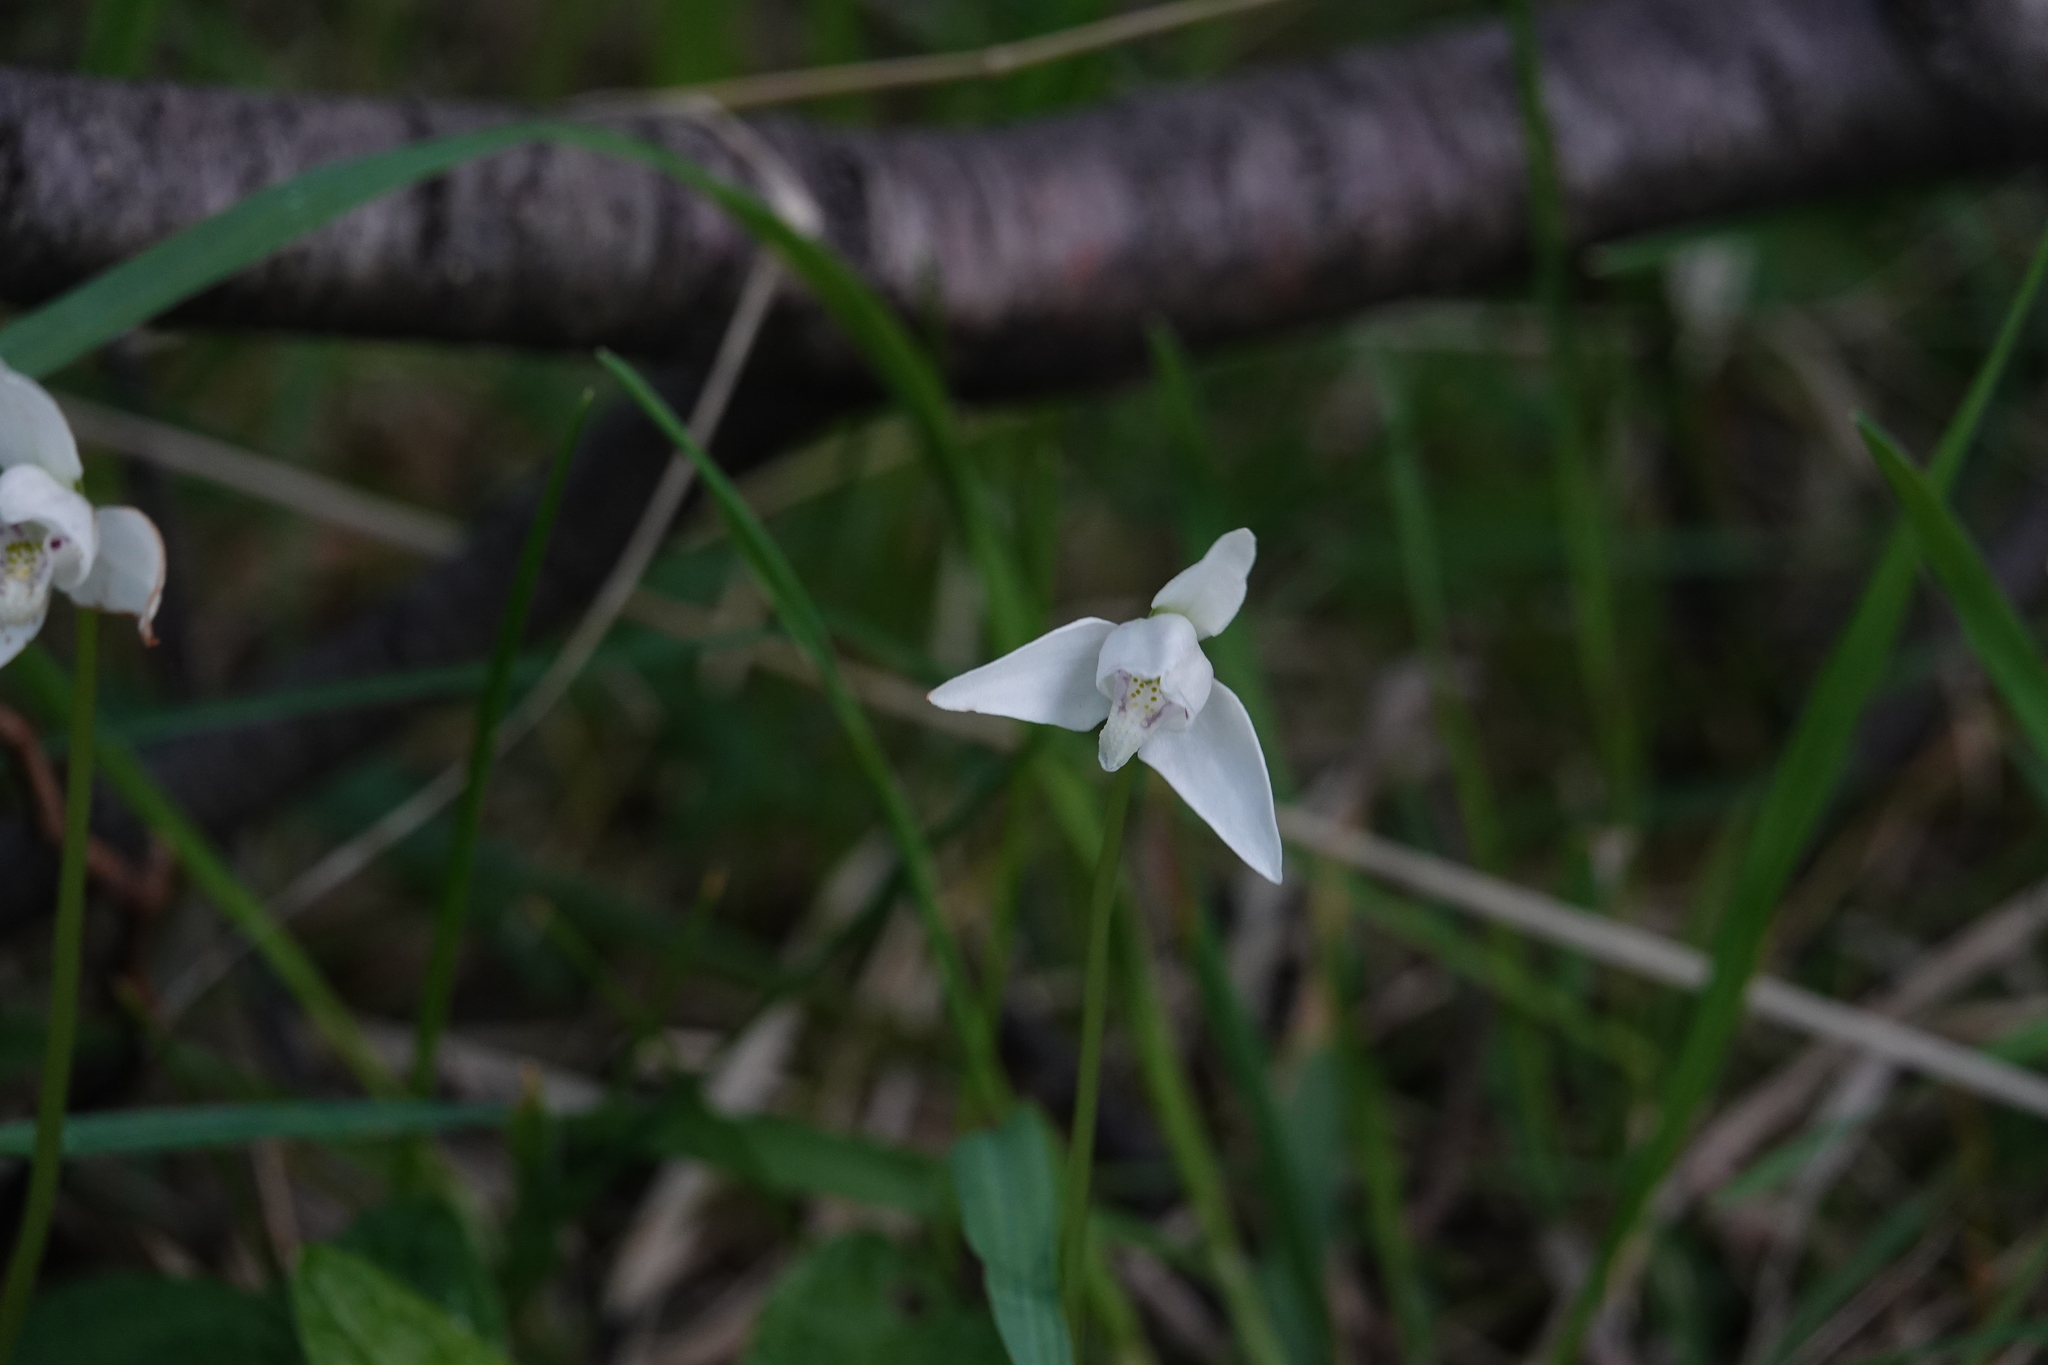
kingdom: Plantae
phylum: Tracheophyta
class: Liliopsida
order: Asparagales
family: Orchidaceae
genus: Codonorchis
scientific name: Codonorchis lessonii
